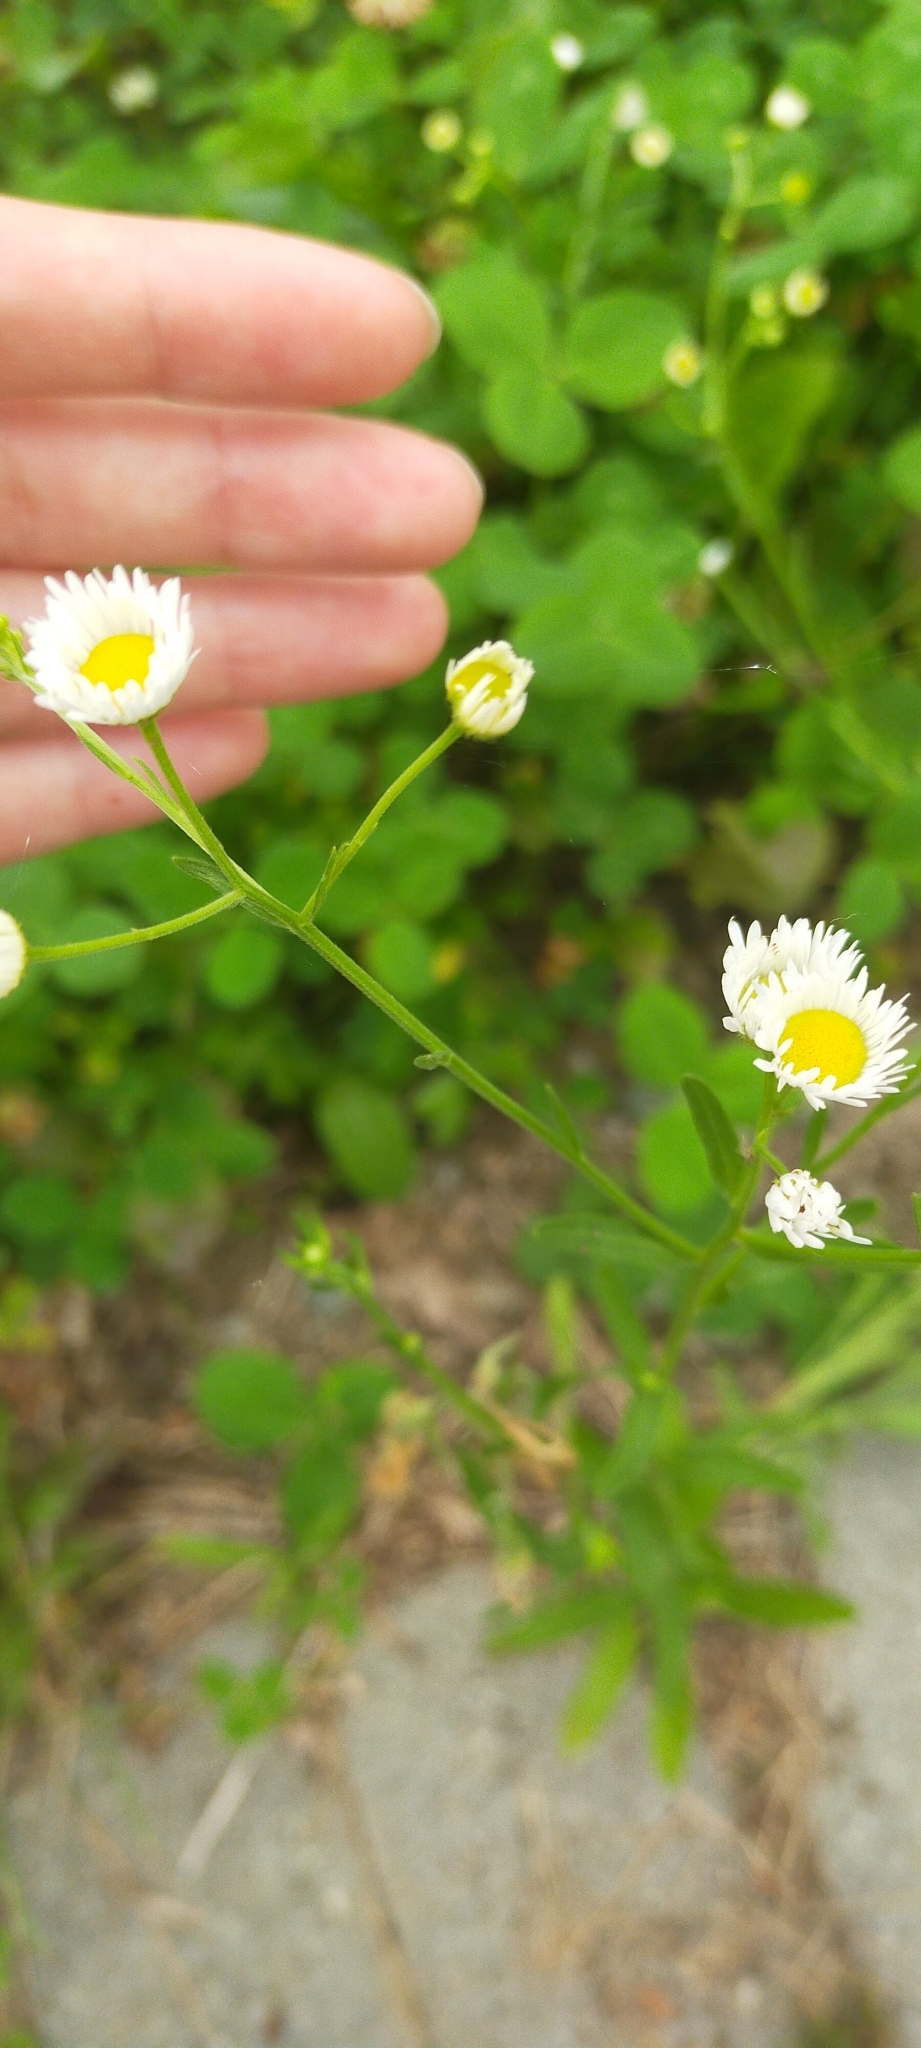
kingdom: Plantae
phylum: Tracheophyta
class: Magnoliopsida
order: Asterales
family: Asteraceae
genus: Erigeron
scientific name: Erigeron strigosus
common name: Common eastern fleabane
